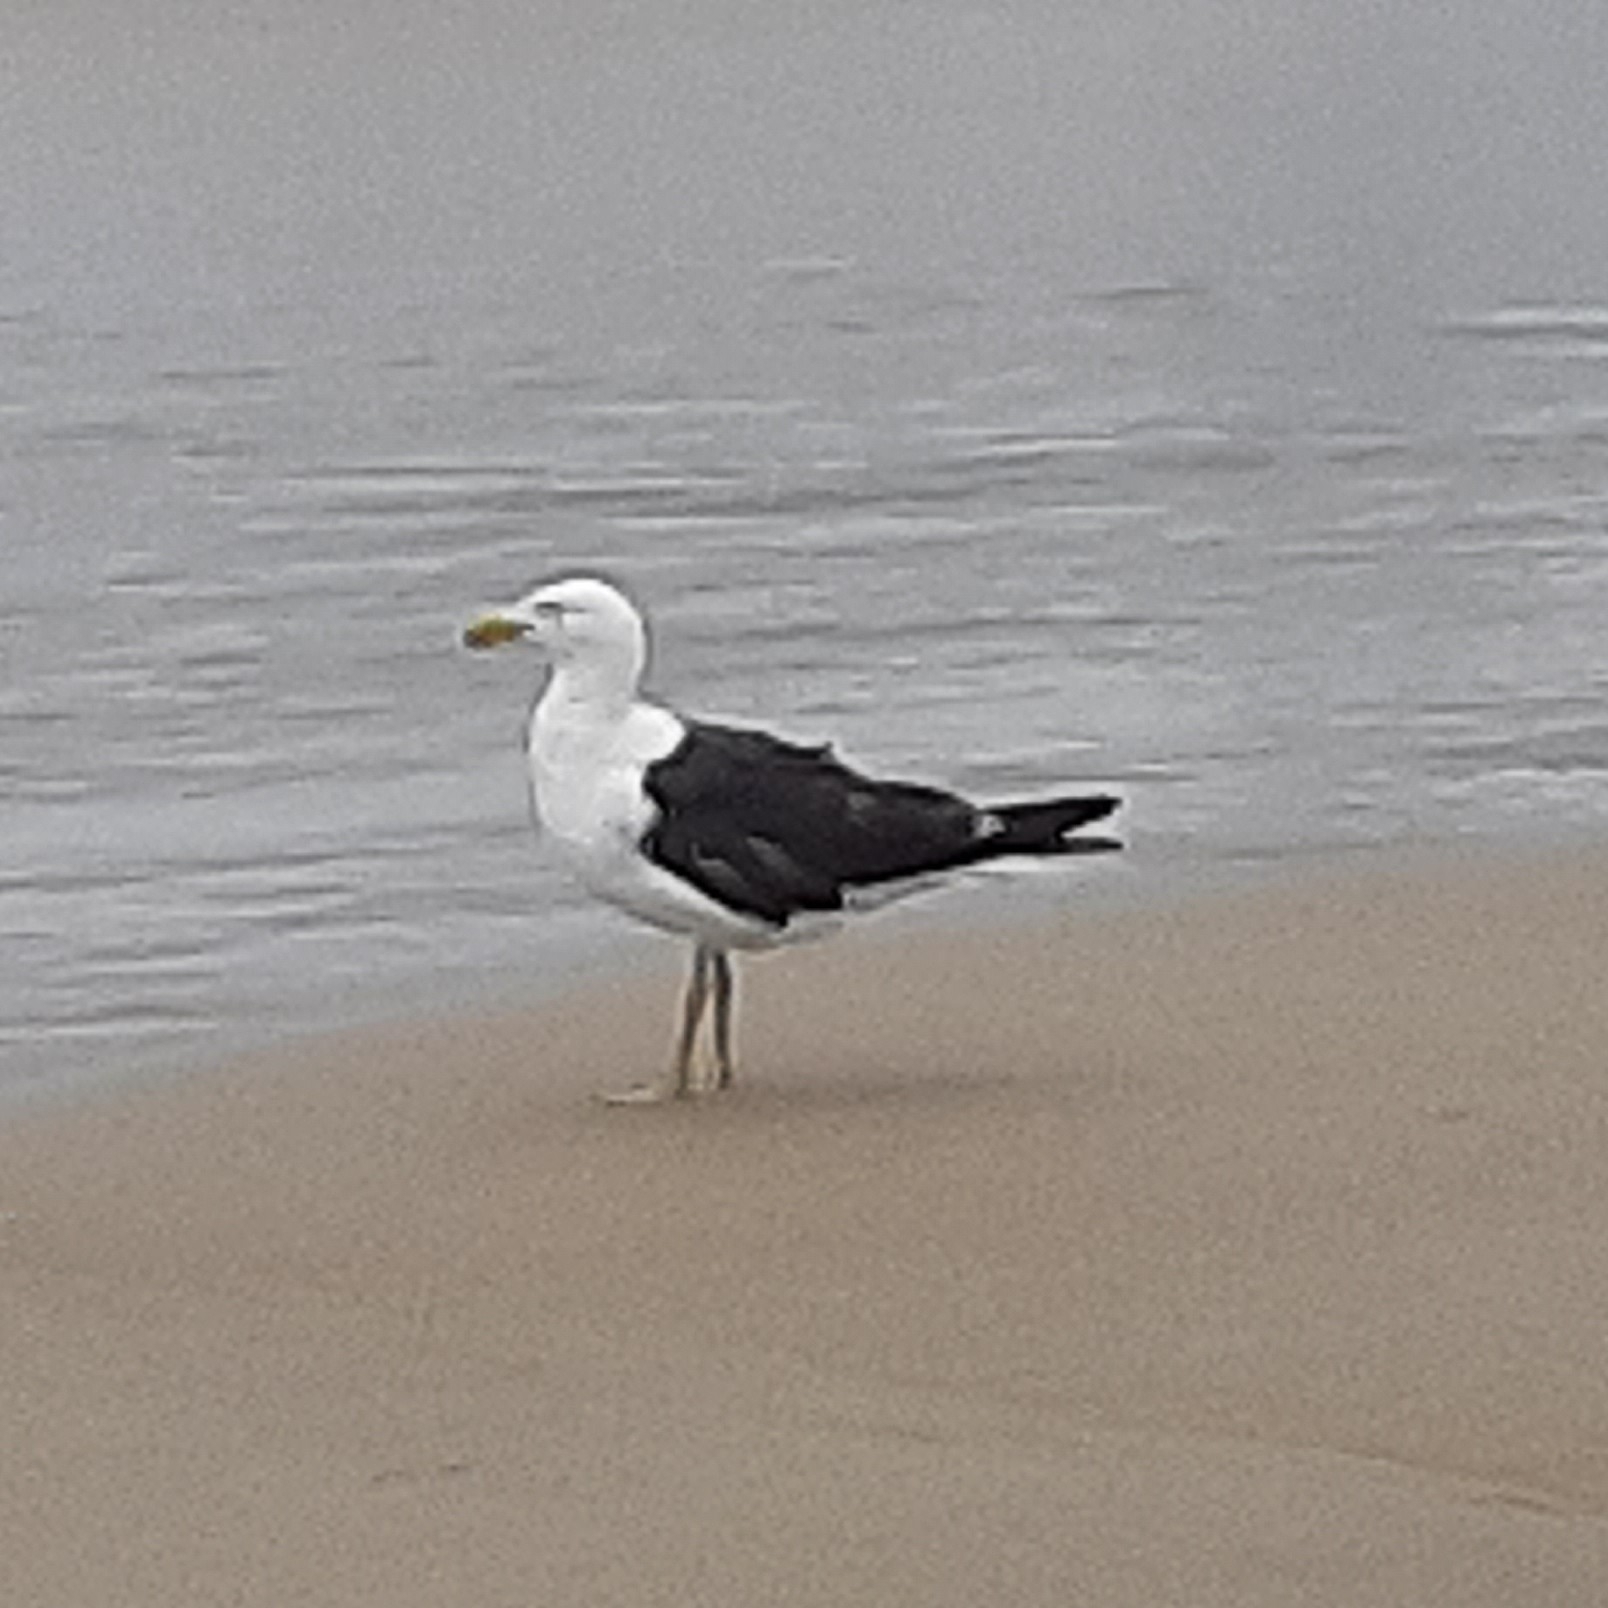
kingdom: Animalia
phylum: Chordata
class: Aves
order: Charadriiformes
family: Laridae
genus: Larus
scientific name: Larus dominicanus
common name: Kelp gull
